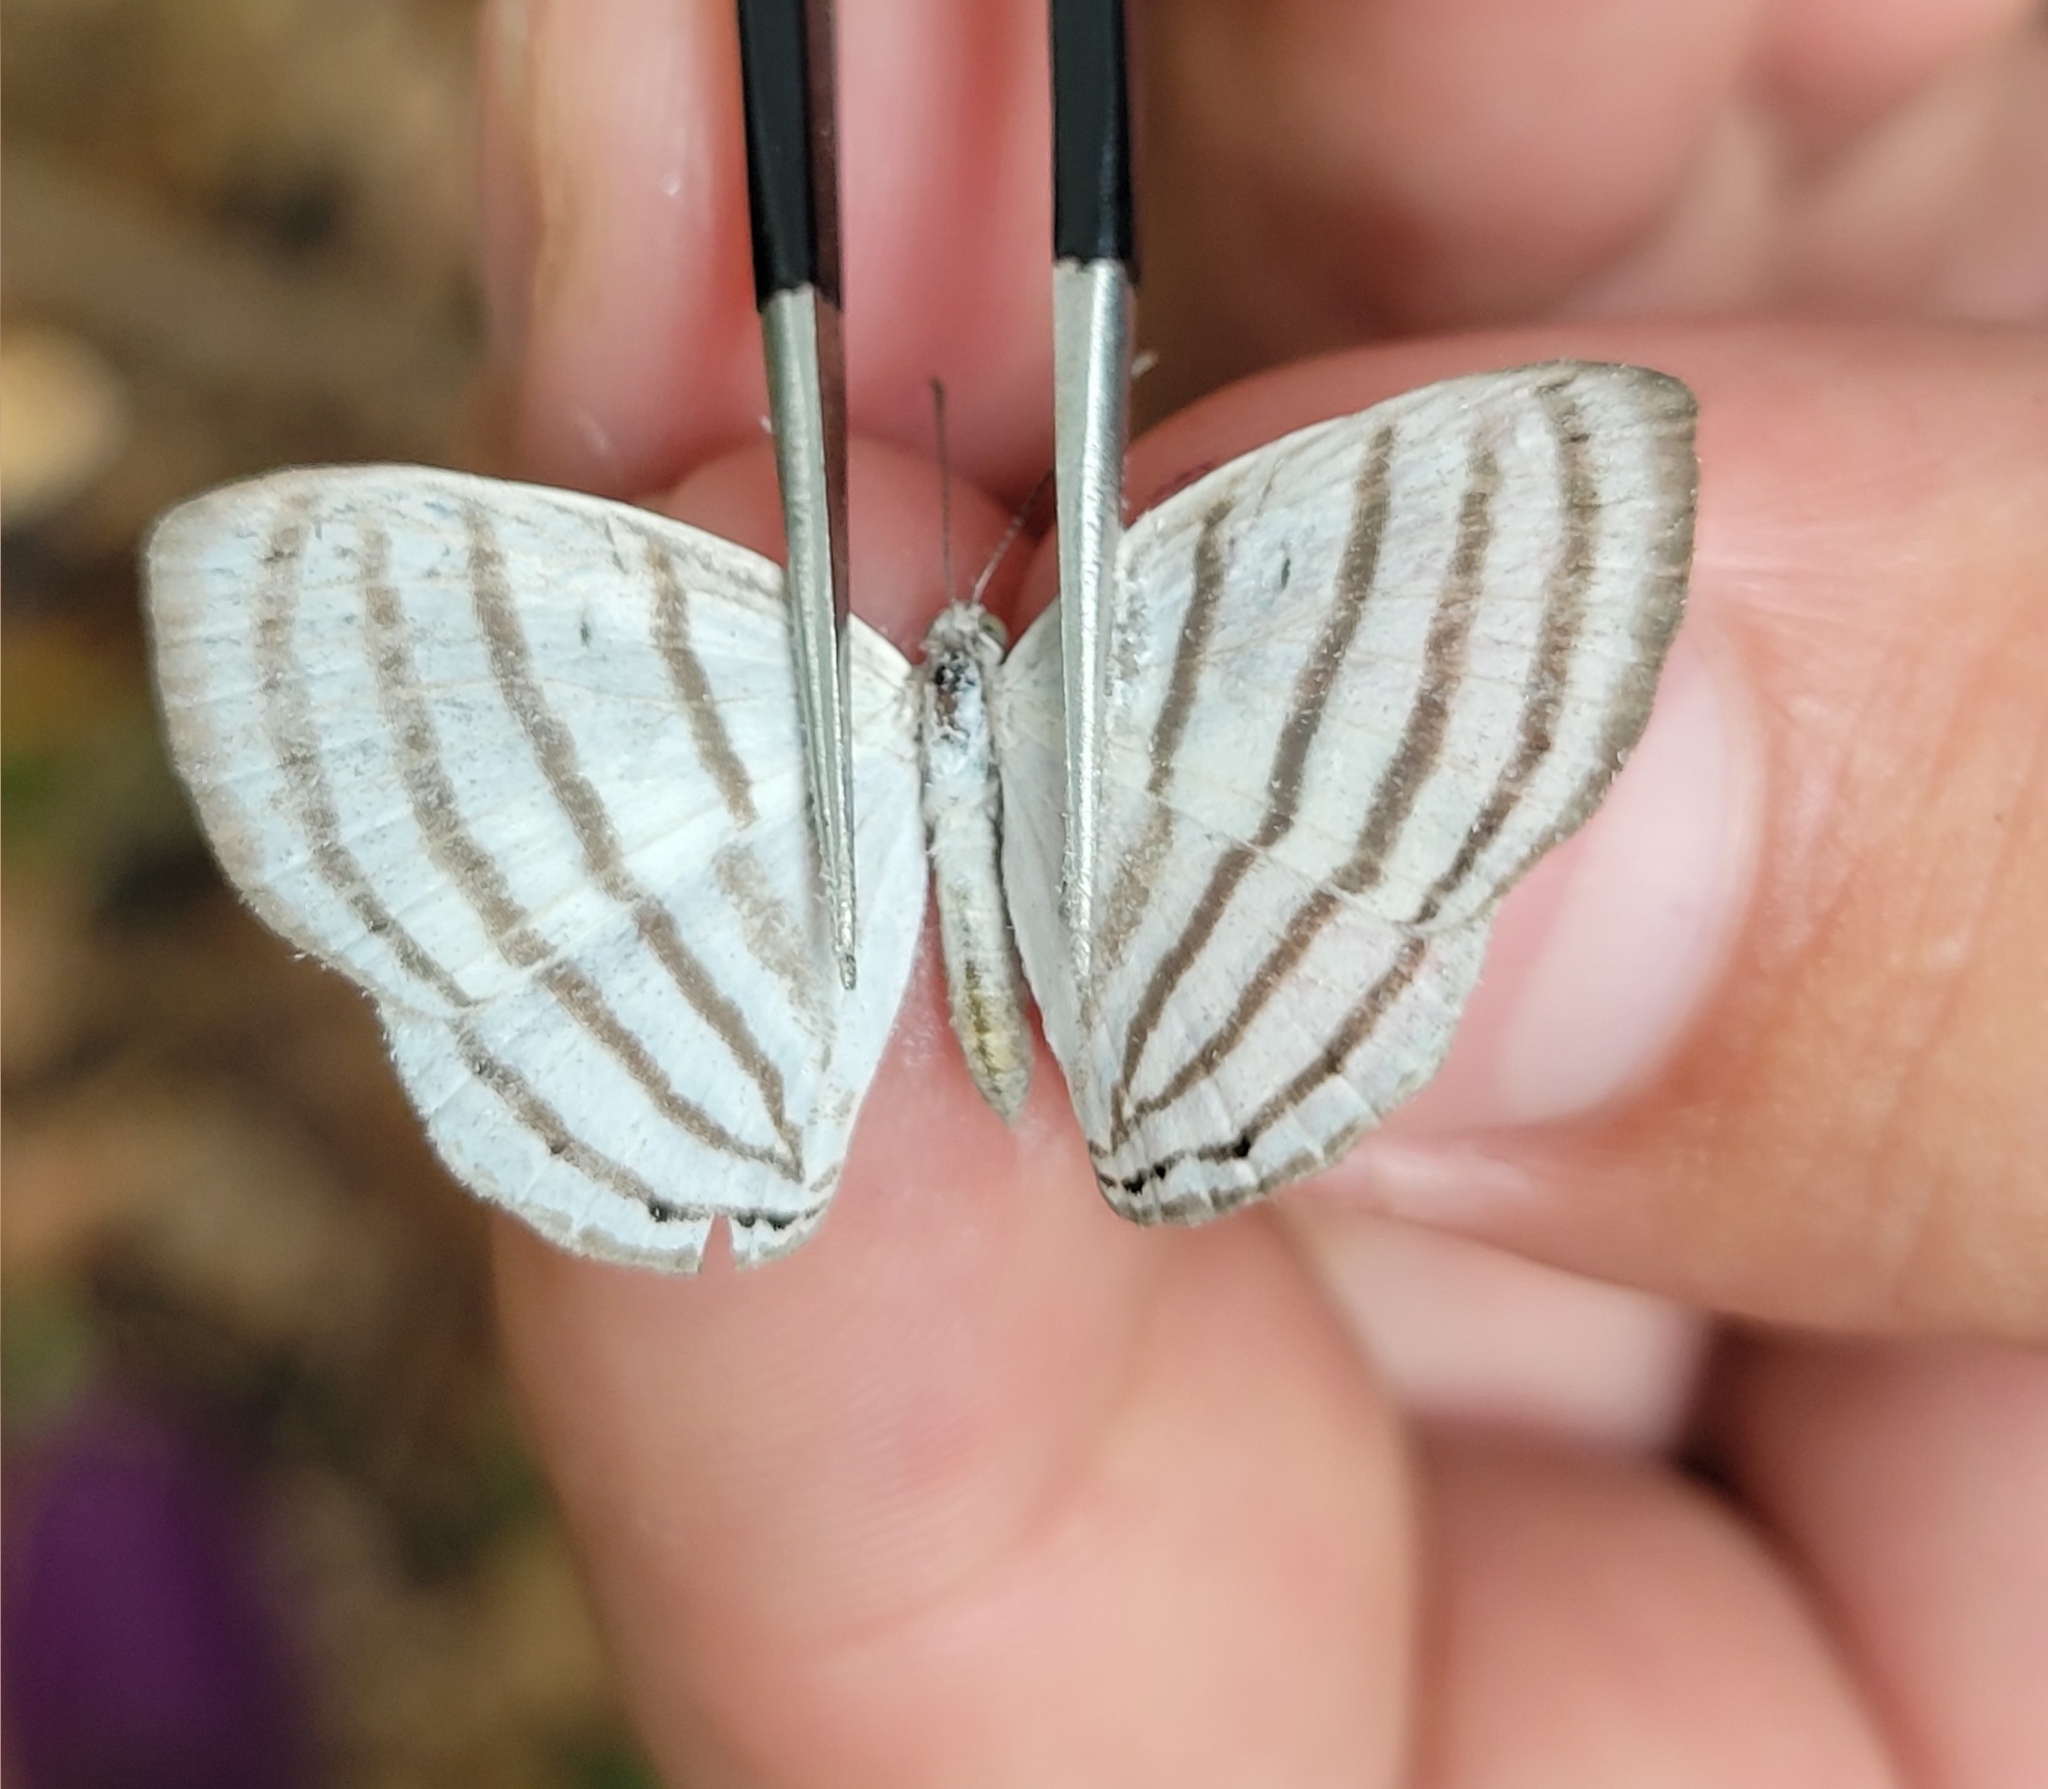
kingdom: Animalia
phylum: Arthropoda
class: Insecta
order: Lepidoptera
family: Riodinidae
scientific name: Riodinidae
